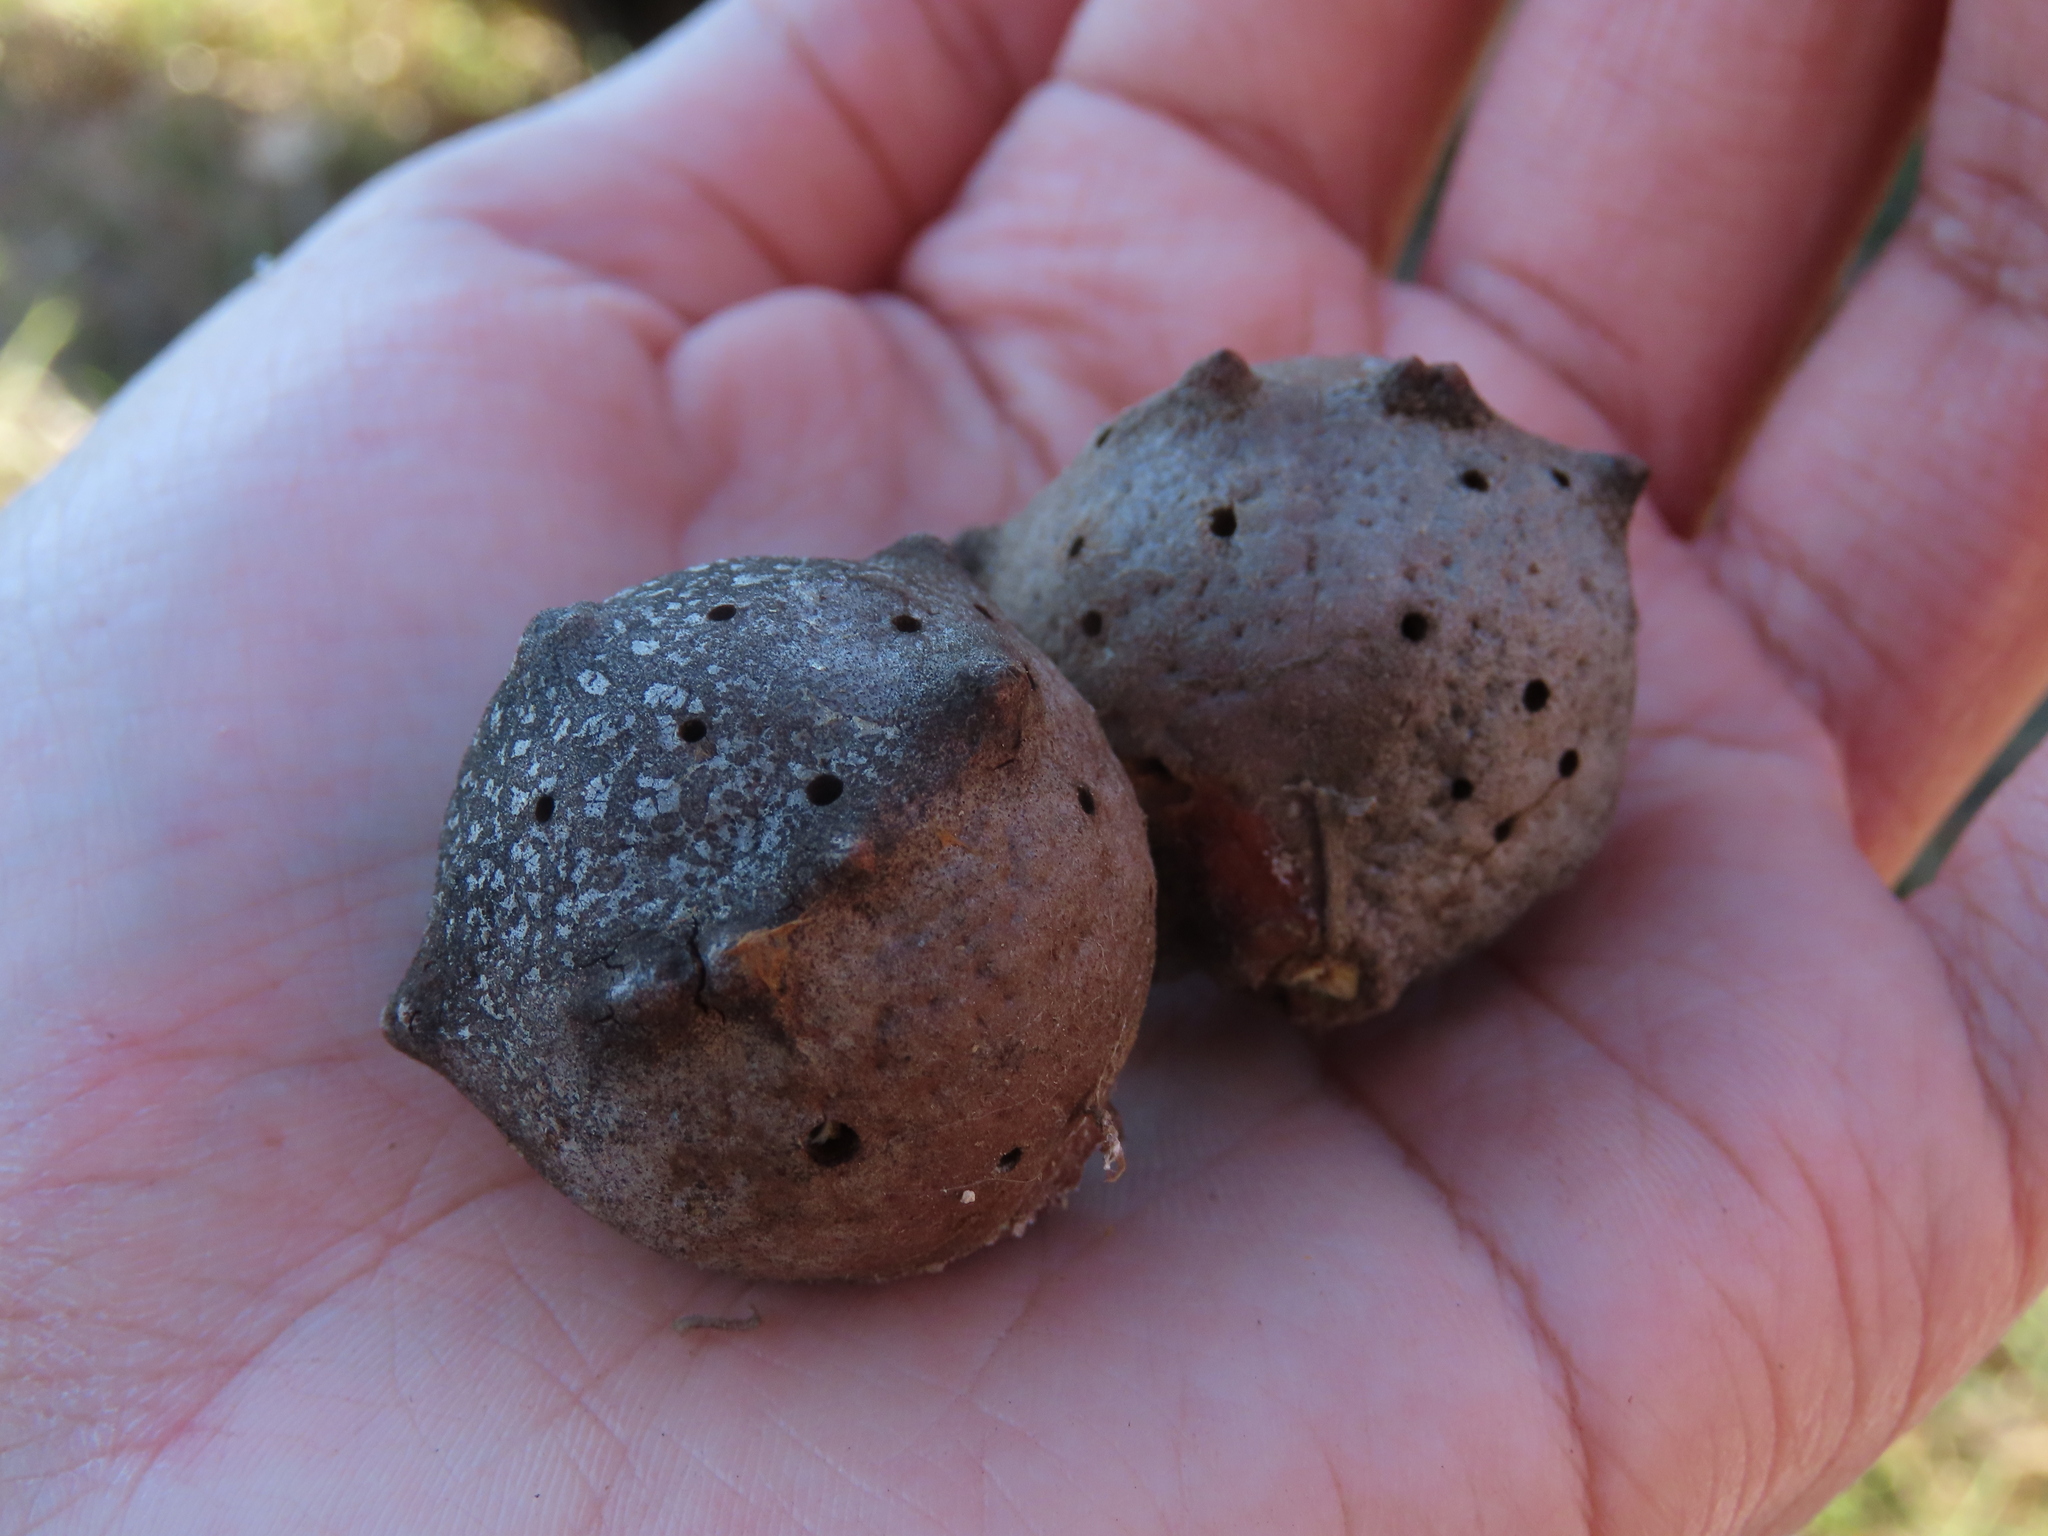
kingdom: Animalia
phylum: Arthropoda
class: Insecta
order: Hymenoptera
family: Cynipidae
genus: Andricus
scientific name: Andricus quercustozae
